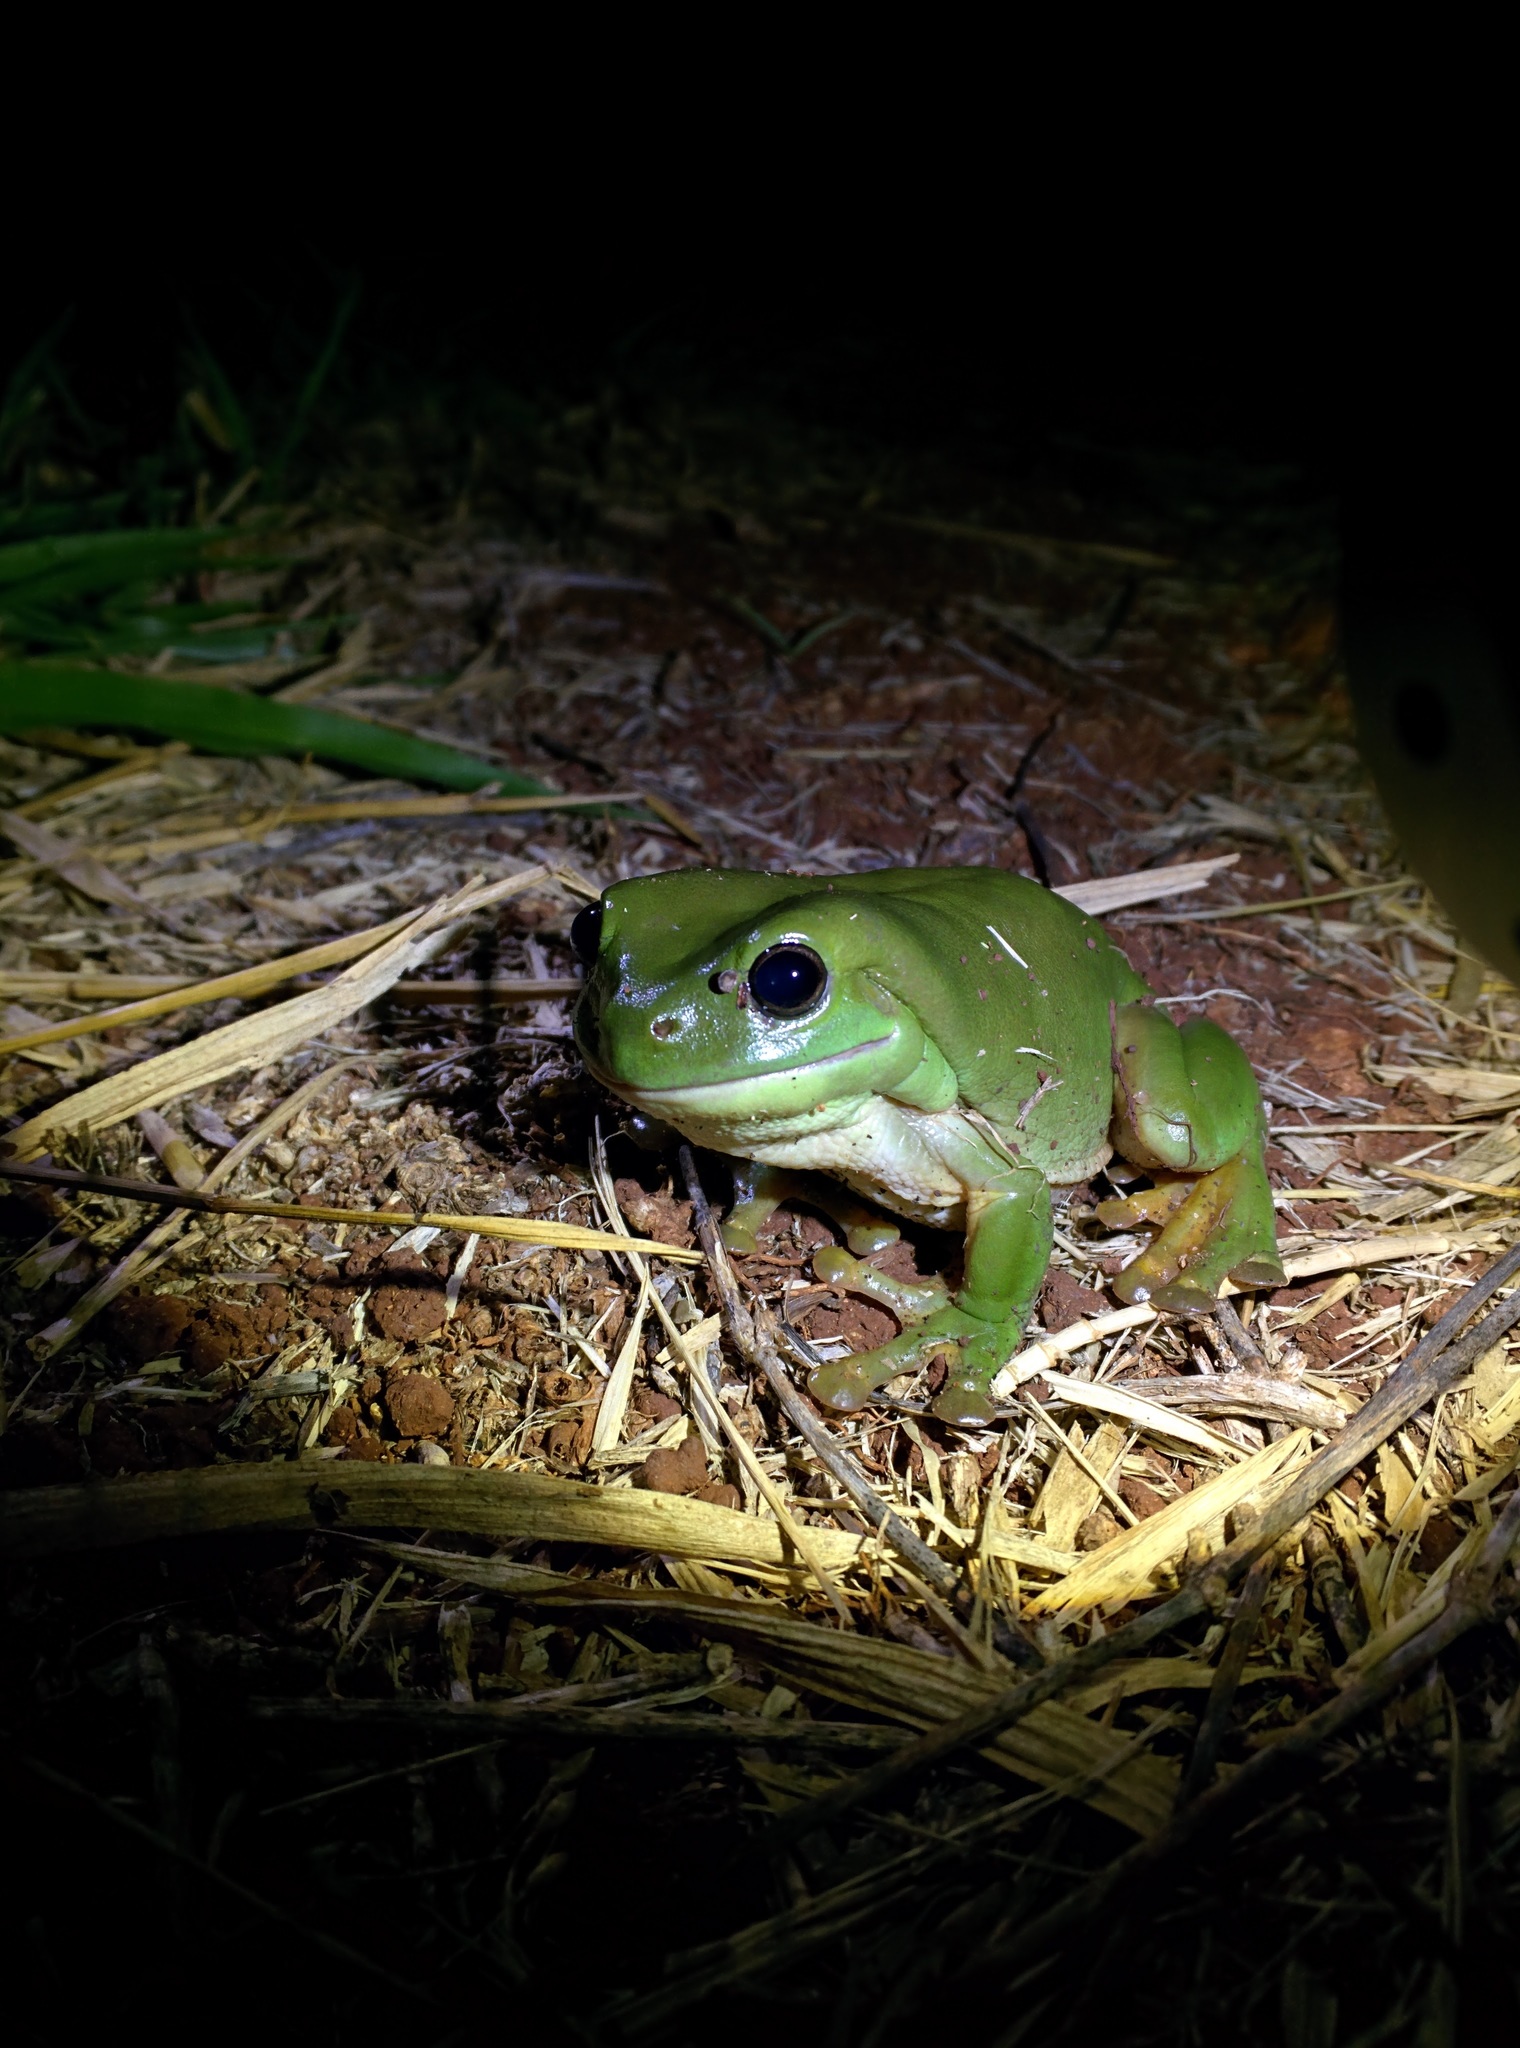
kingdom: Animalia
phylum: Chordata
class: Amphibia
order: Anura
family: Pelodryadidae
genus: Ranoidea
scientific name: Ranoidea caerulea
